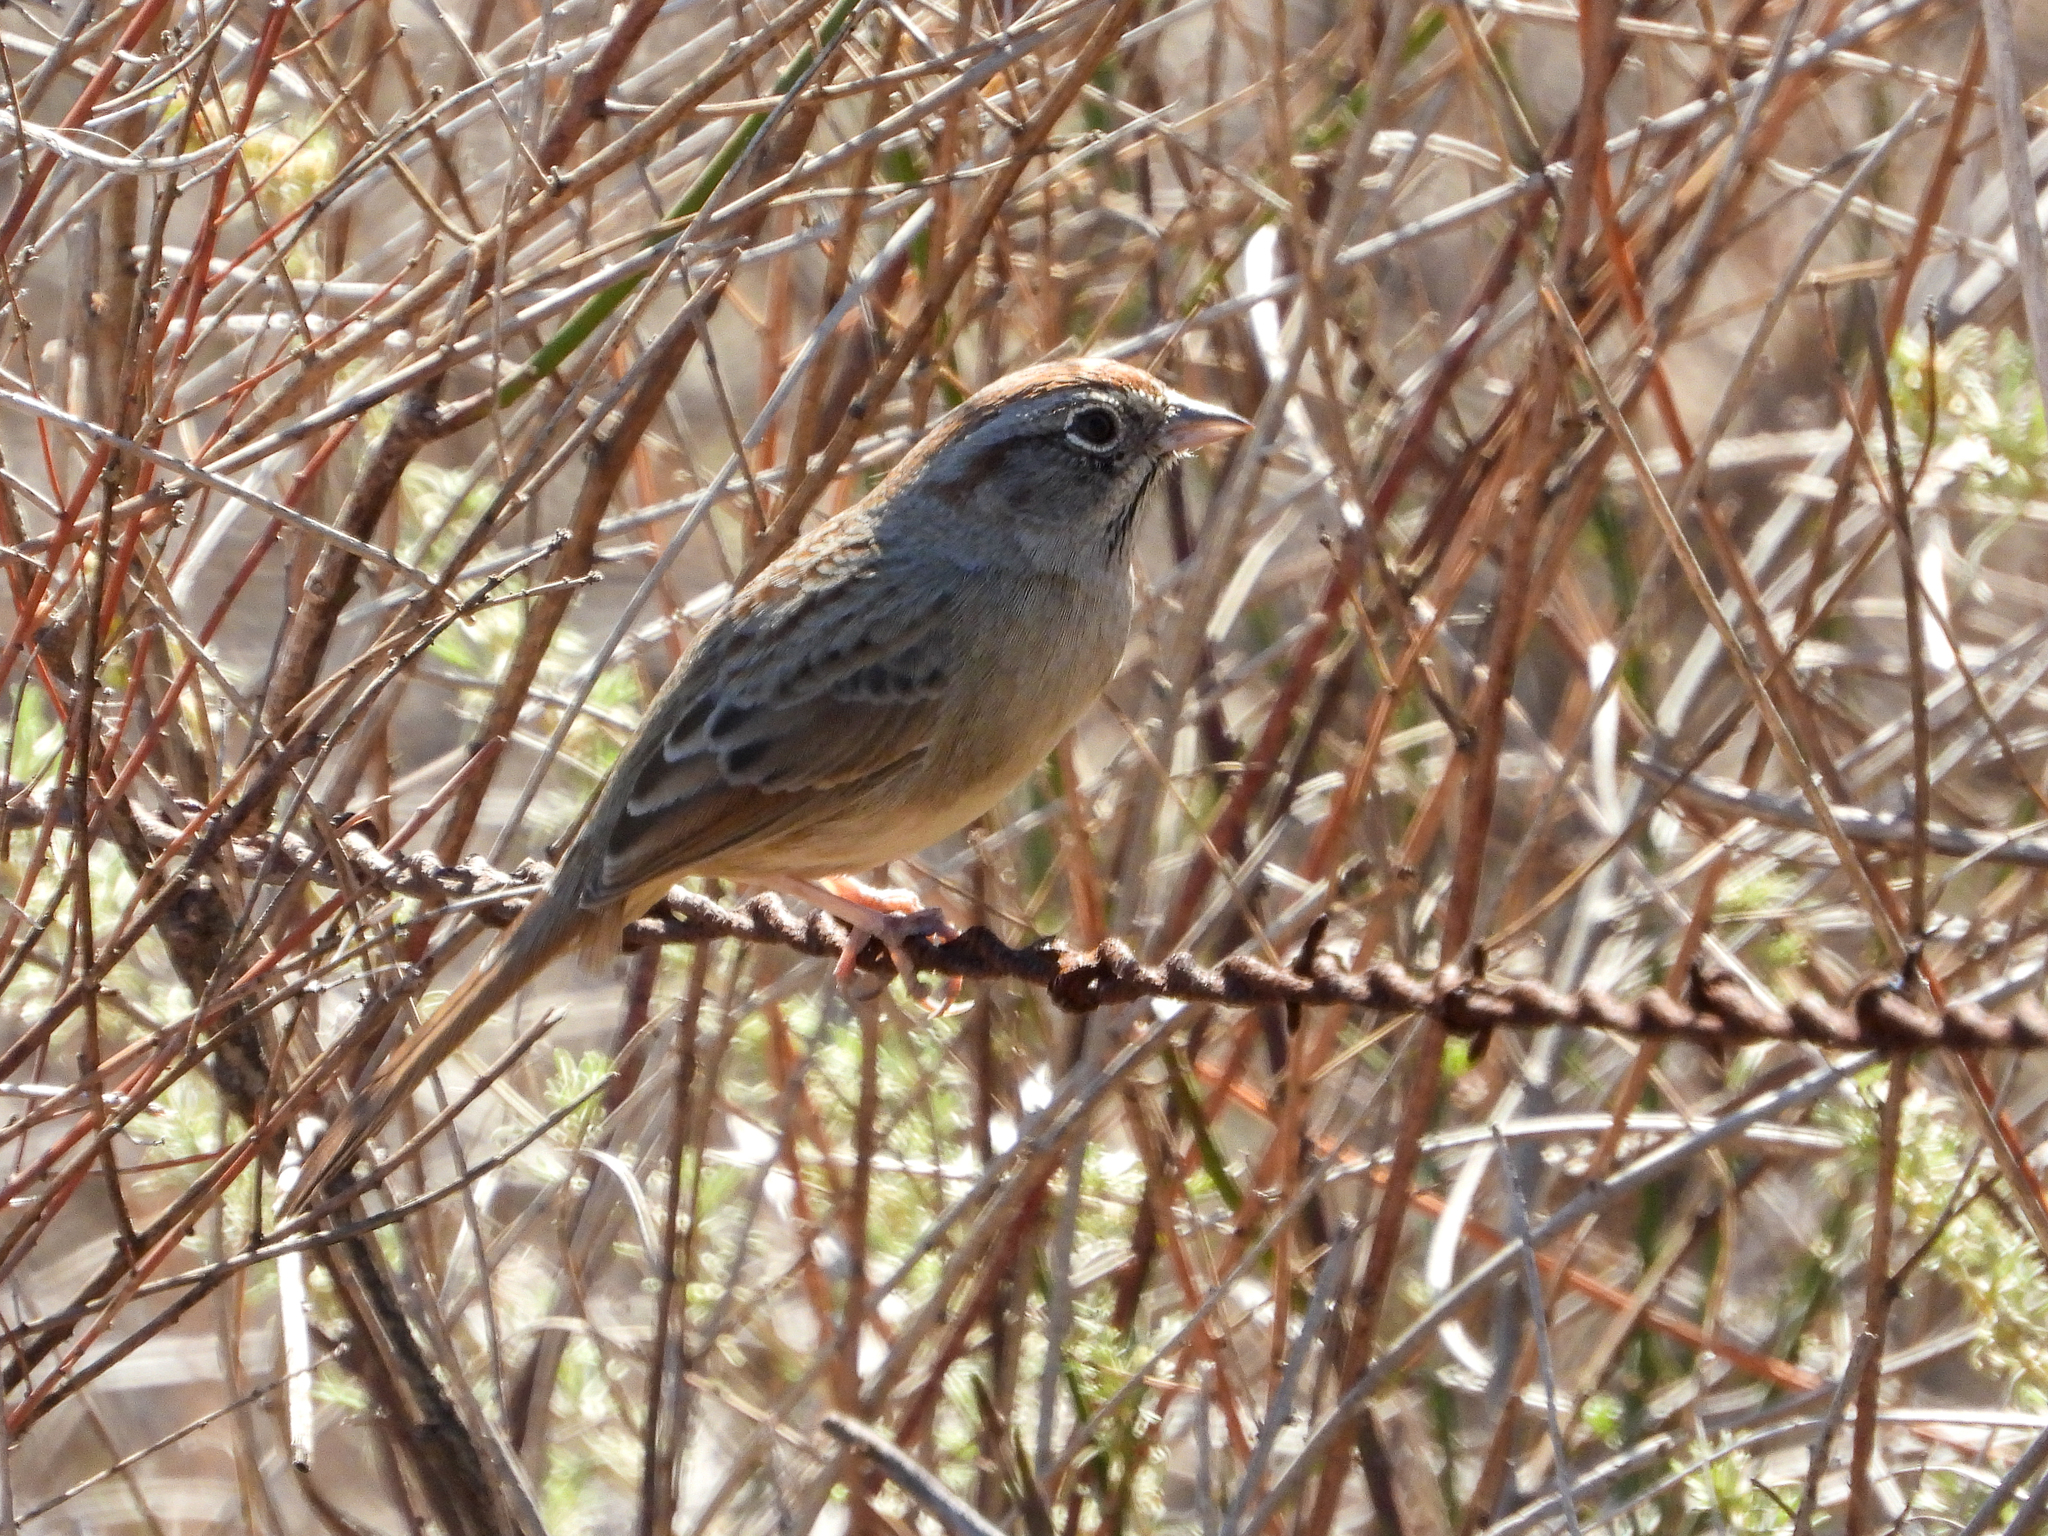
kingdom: Animalia
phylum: Chordata
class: Aves
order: Passeriformes
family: Passerellidae
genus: Aimophila
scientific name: Aimophila ruficeps
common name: Rufous-crowned sparrow
